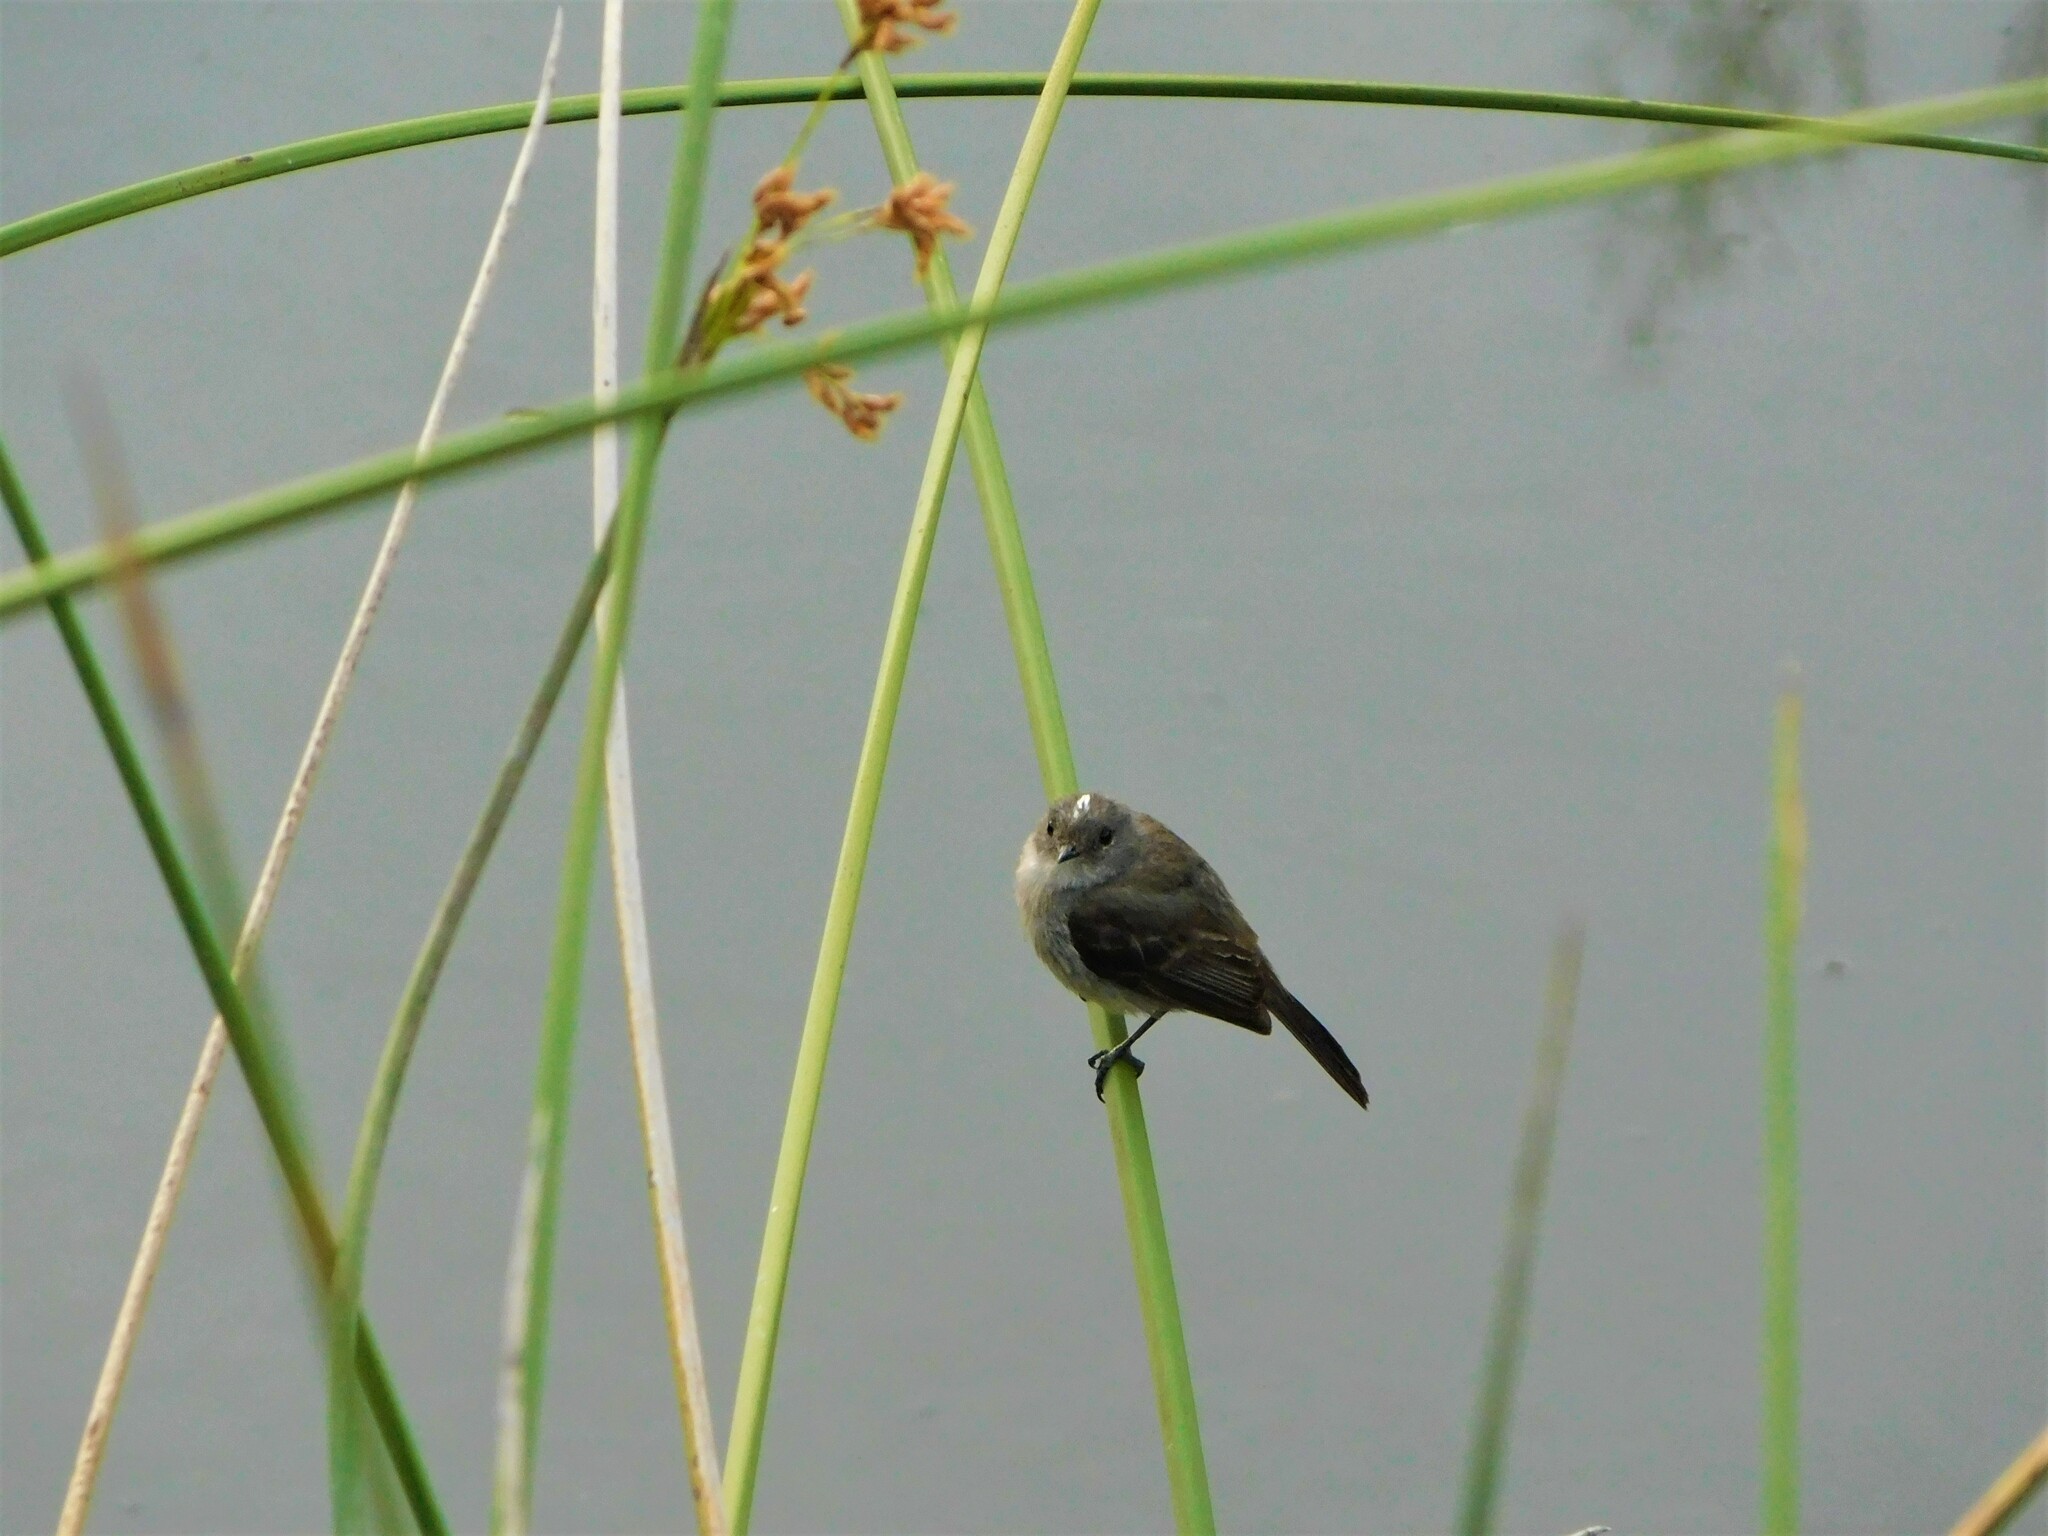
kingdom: Animalia
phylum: Chordata
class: Aves
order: Passeriformes
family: Tyrannidae
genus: Serpophaga
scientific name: Serpophaga nigricans
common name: Sooty tyrannulet
